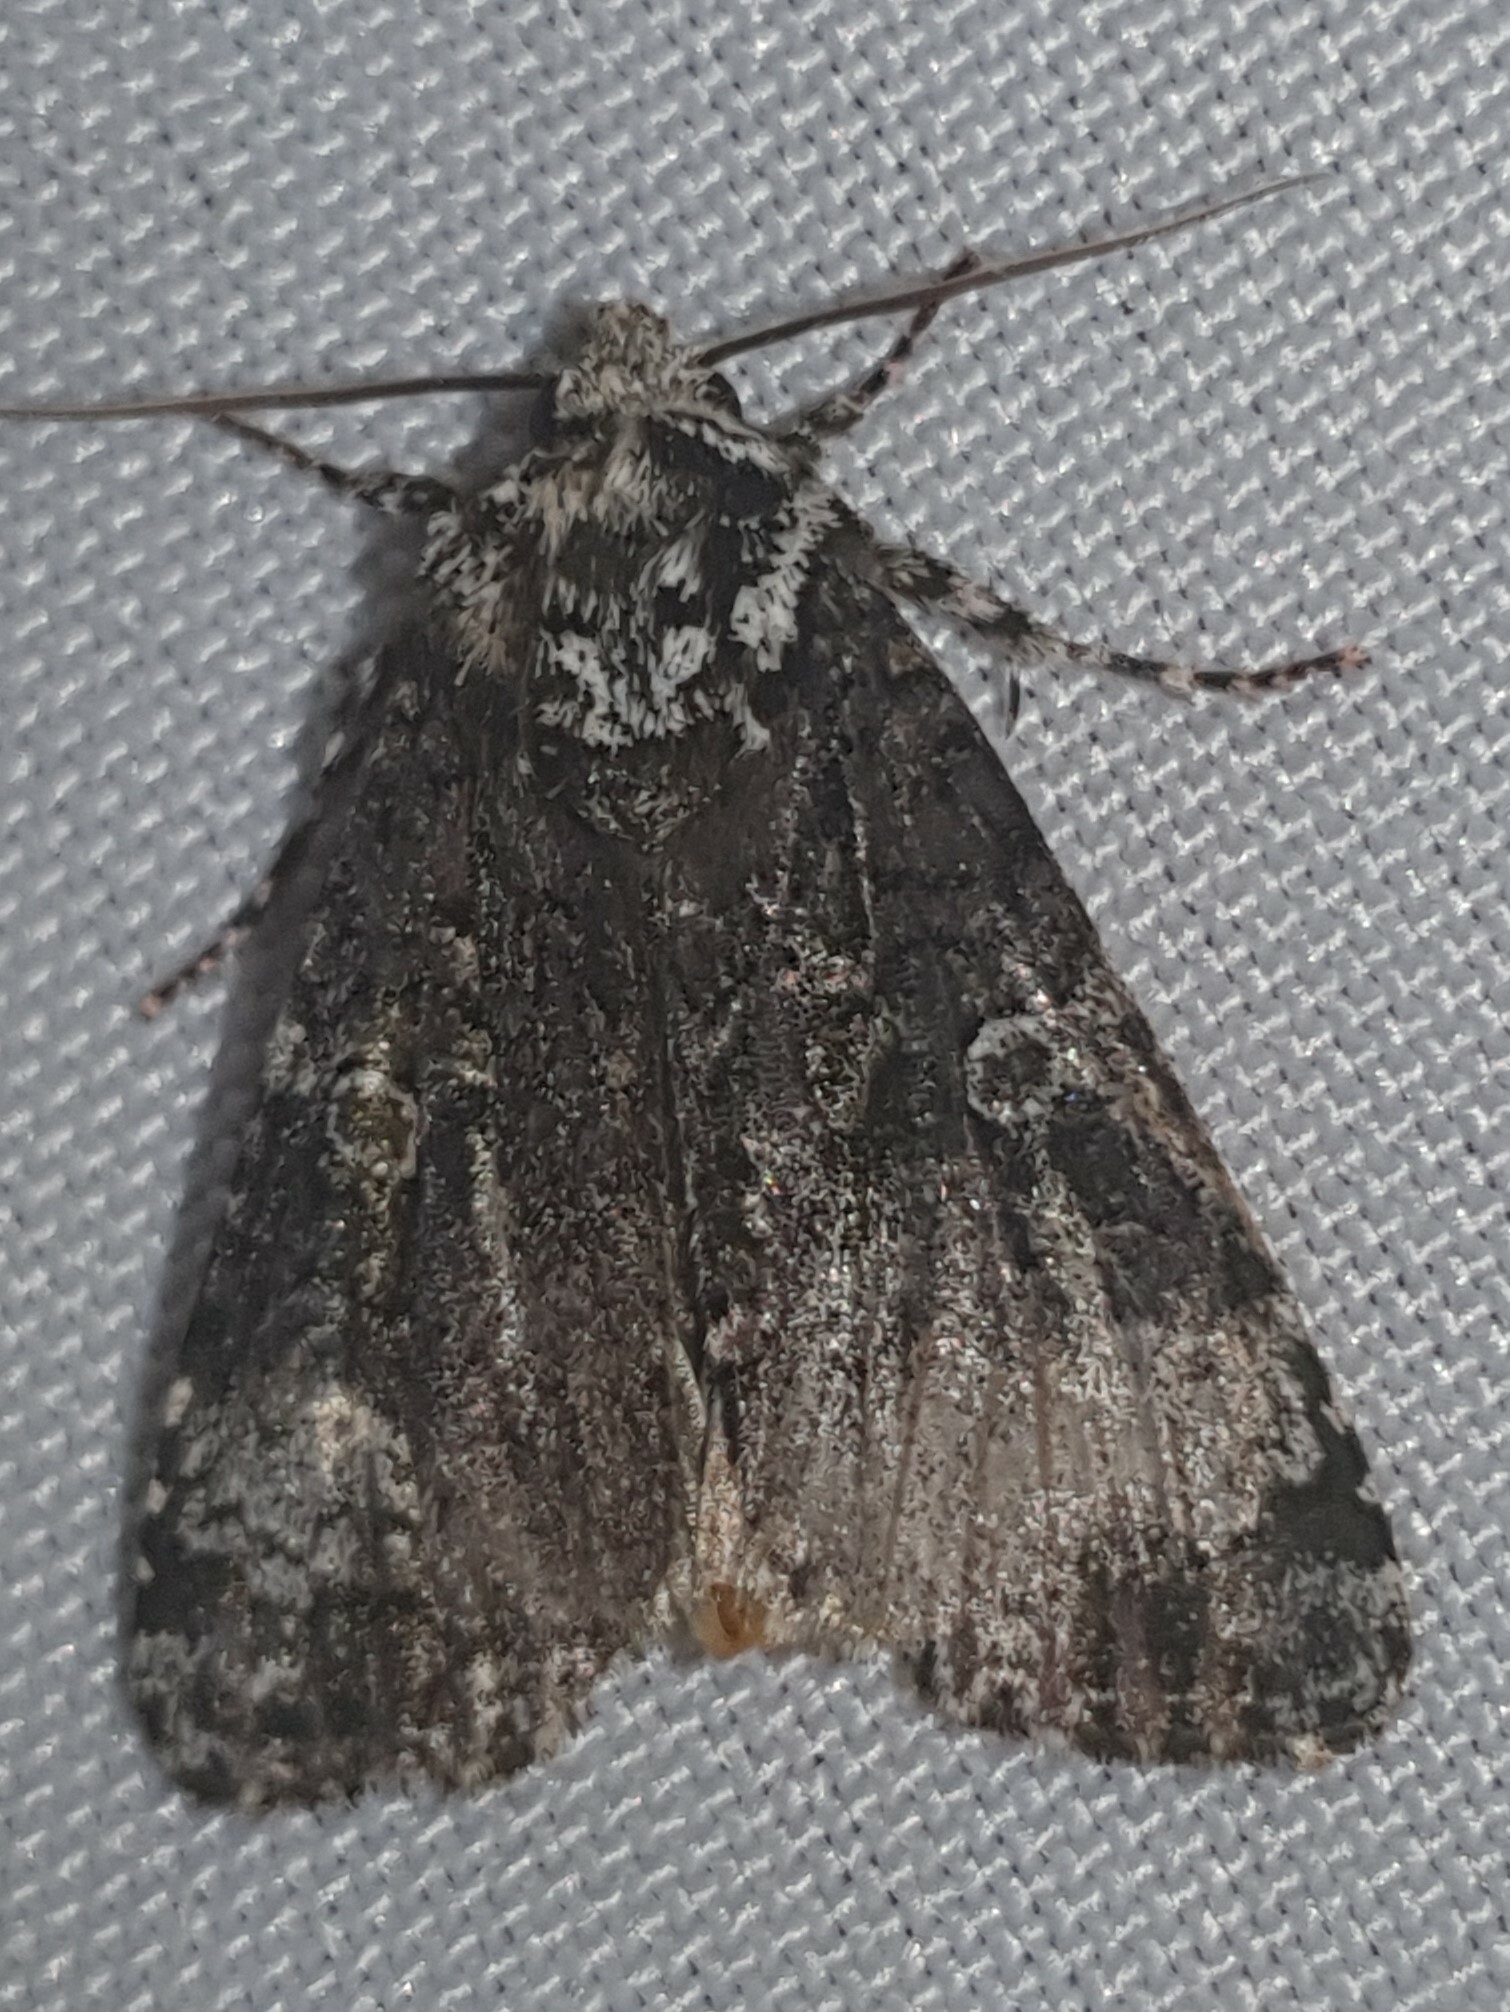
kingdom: Animalia
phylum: Arthropoda
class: Insecta
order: Lepidoptera
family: Noctuidae
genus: Craniophora
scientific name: Craniophora ligustri
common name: Coronet
